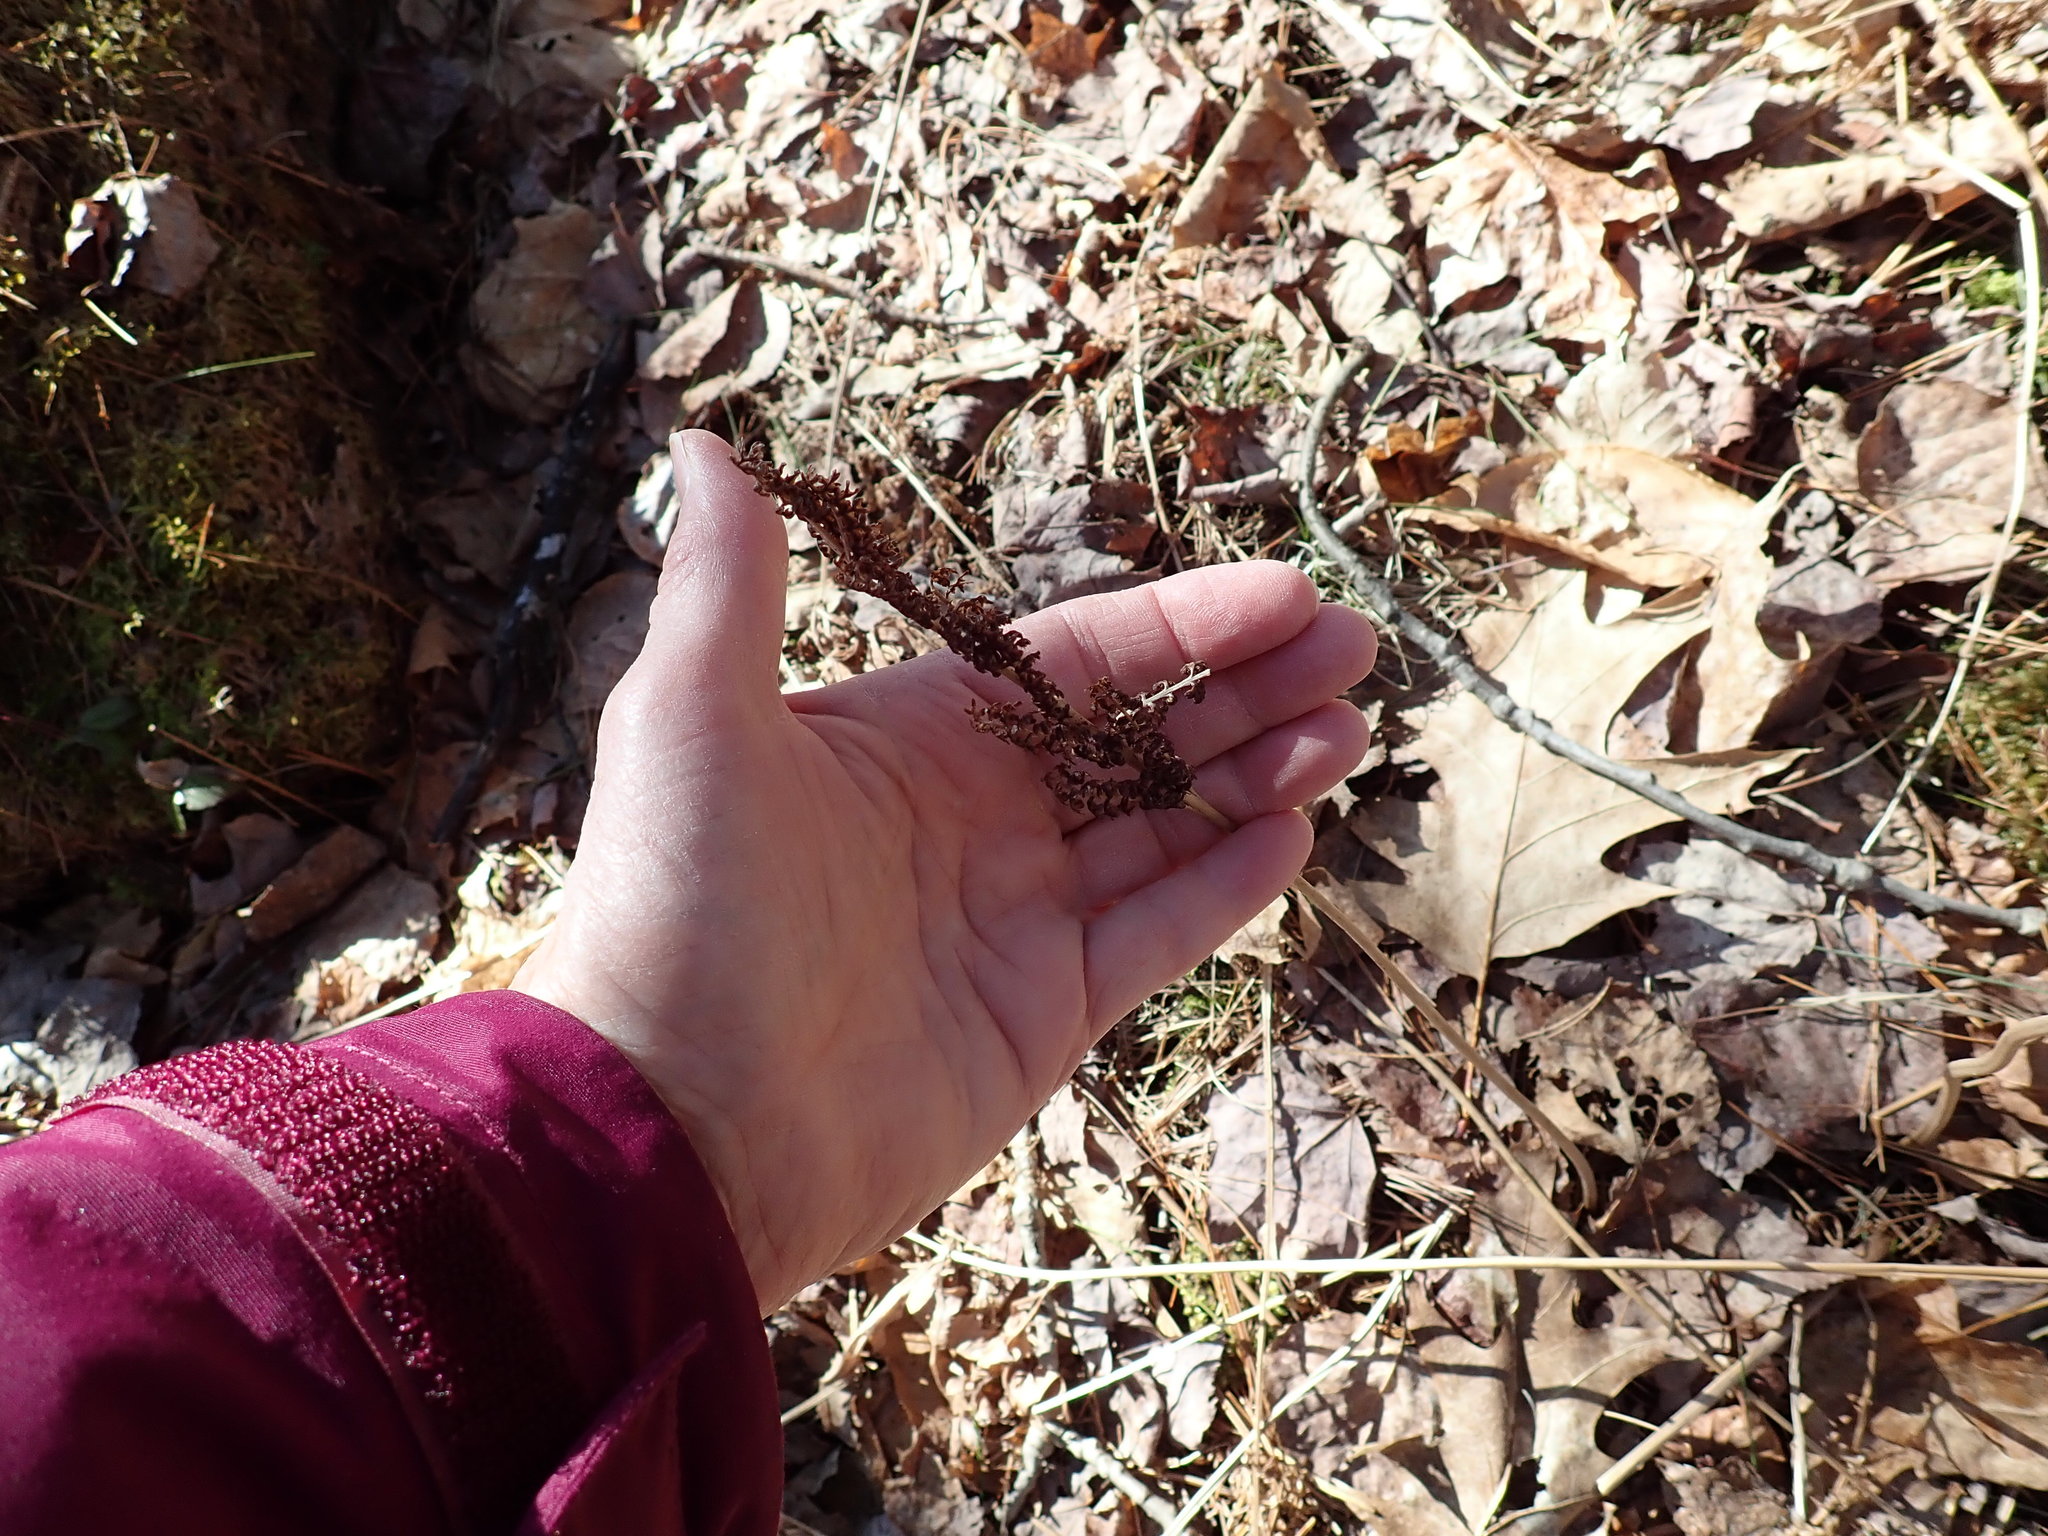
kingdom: Plantae
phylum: Tracheophyta
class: Polypodiopsida
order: Polypodiales
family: Onocleaceae
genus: Onoclea
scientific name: Onoclea sensibilis
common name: Sensitive fern
